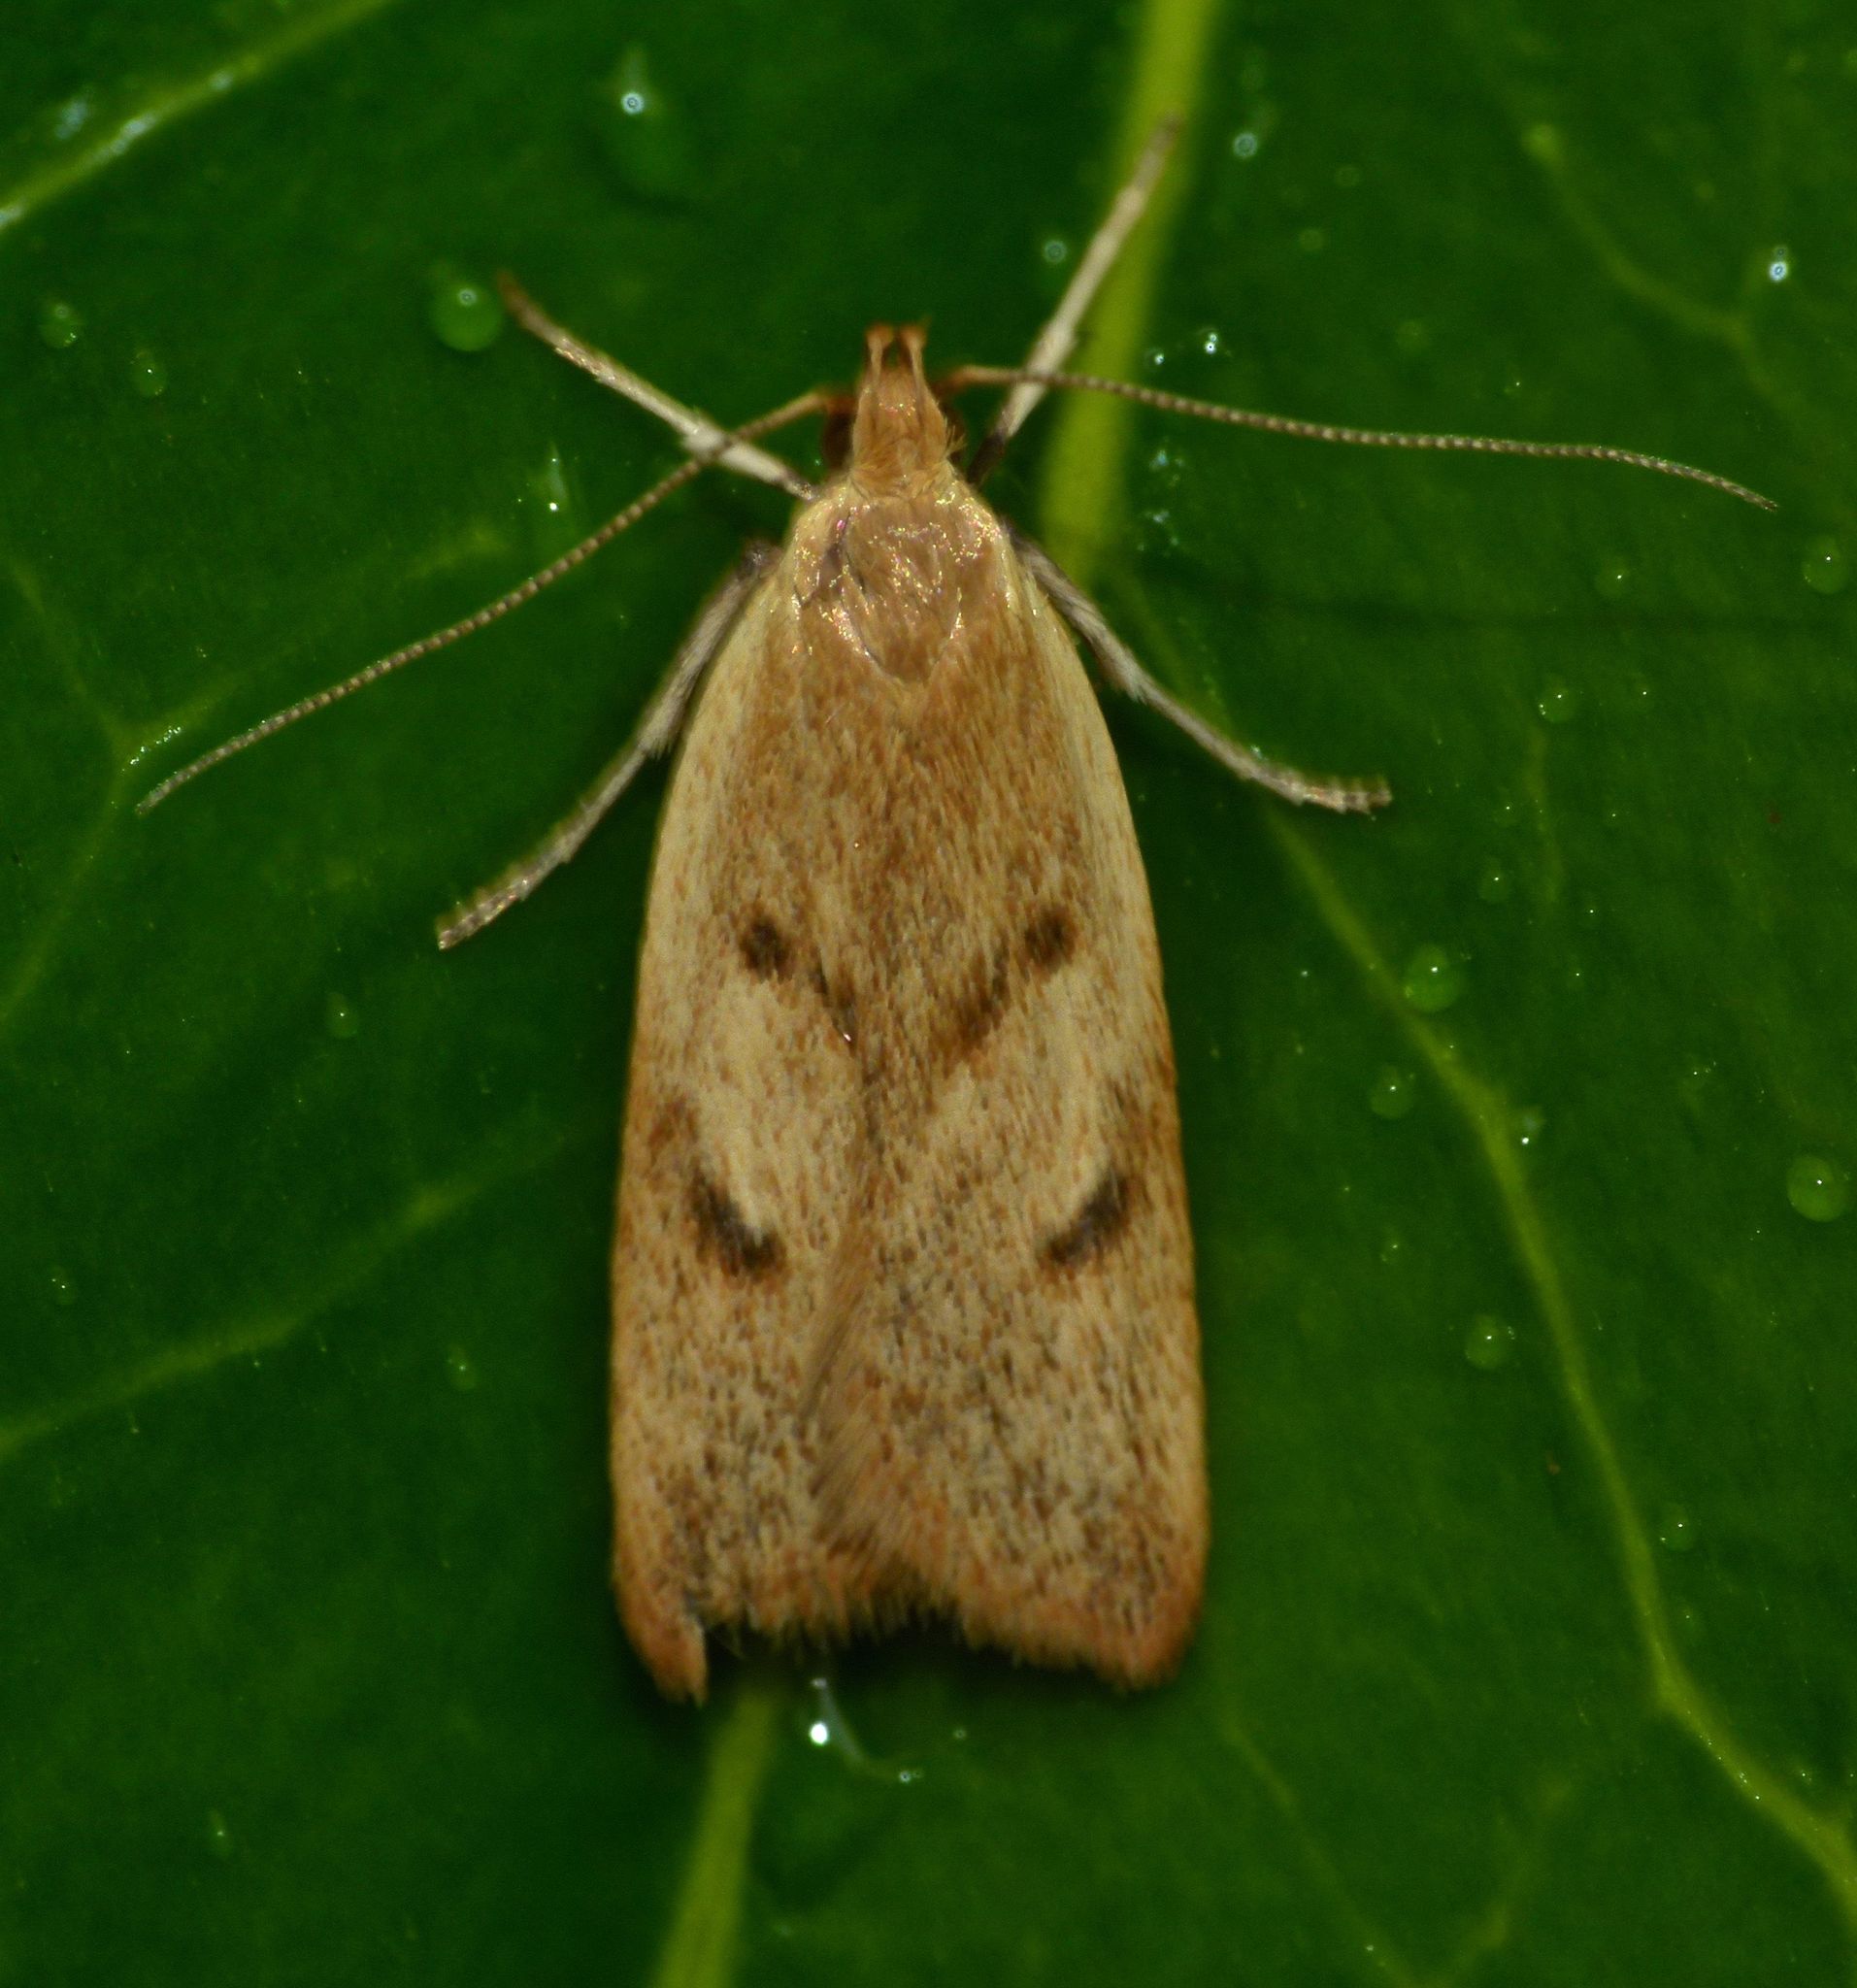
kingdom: Animalia
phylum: Arthropoda
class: Insecta
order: Lepidoptera
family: Oecophoridae
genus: Gymnobathra
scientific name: Gymnobathra sarcoxantha
